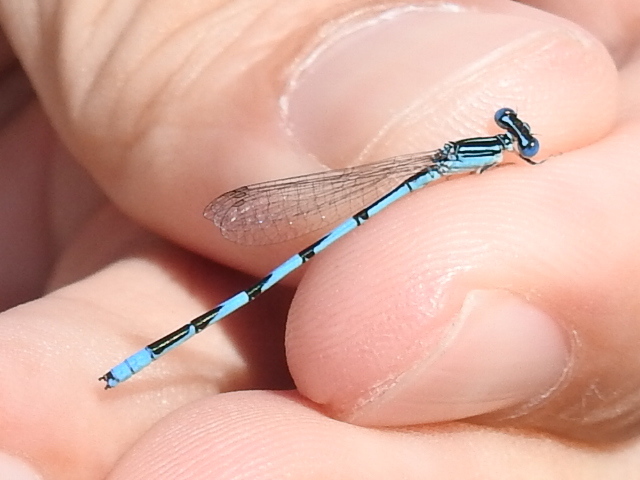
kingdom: Animalia
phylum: Arthropoda
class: Insecta
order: Odonata
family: Coenagrionidae
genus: Enallagma
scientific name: Enallagma basidens
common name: Double-striped bluet
